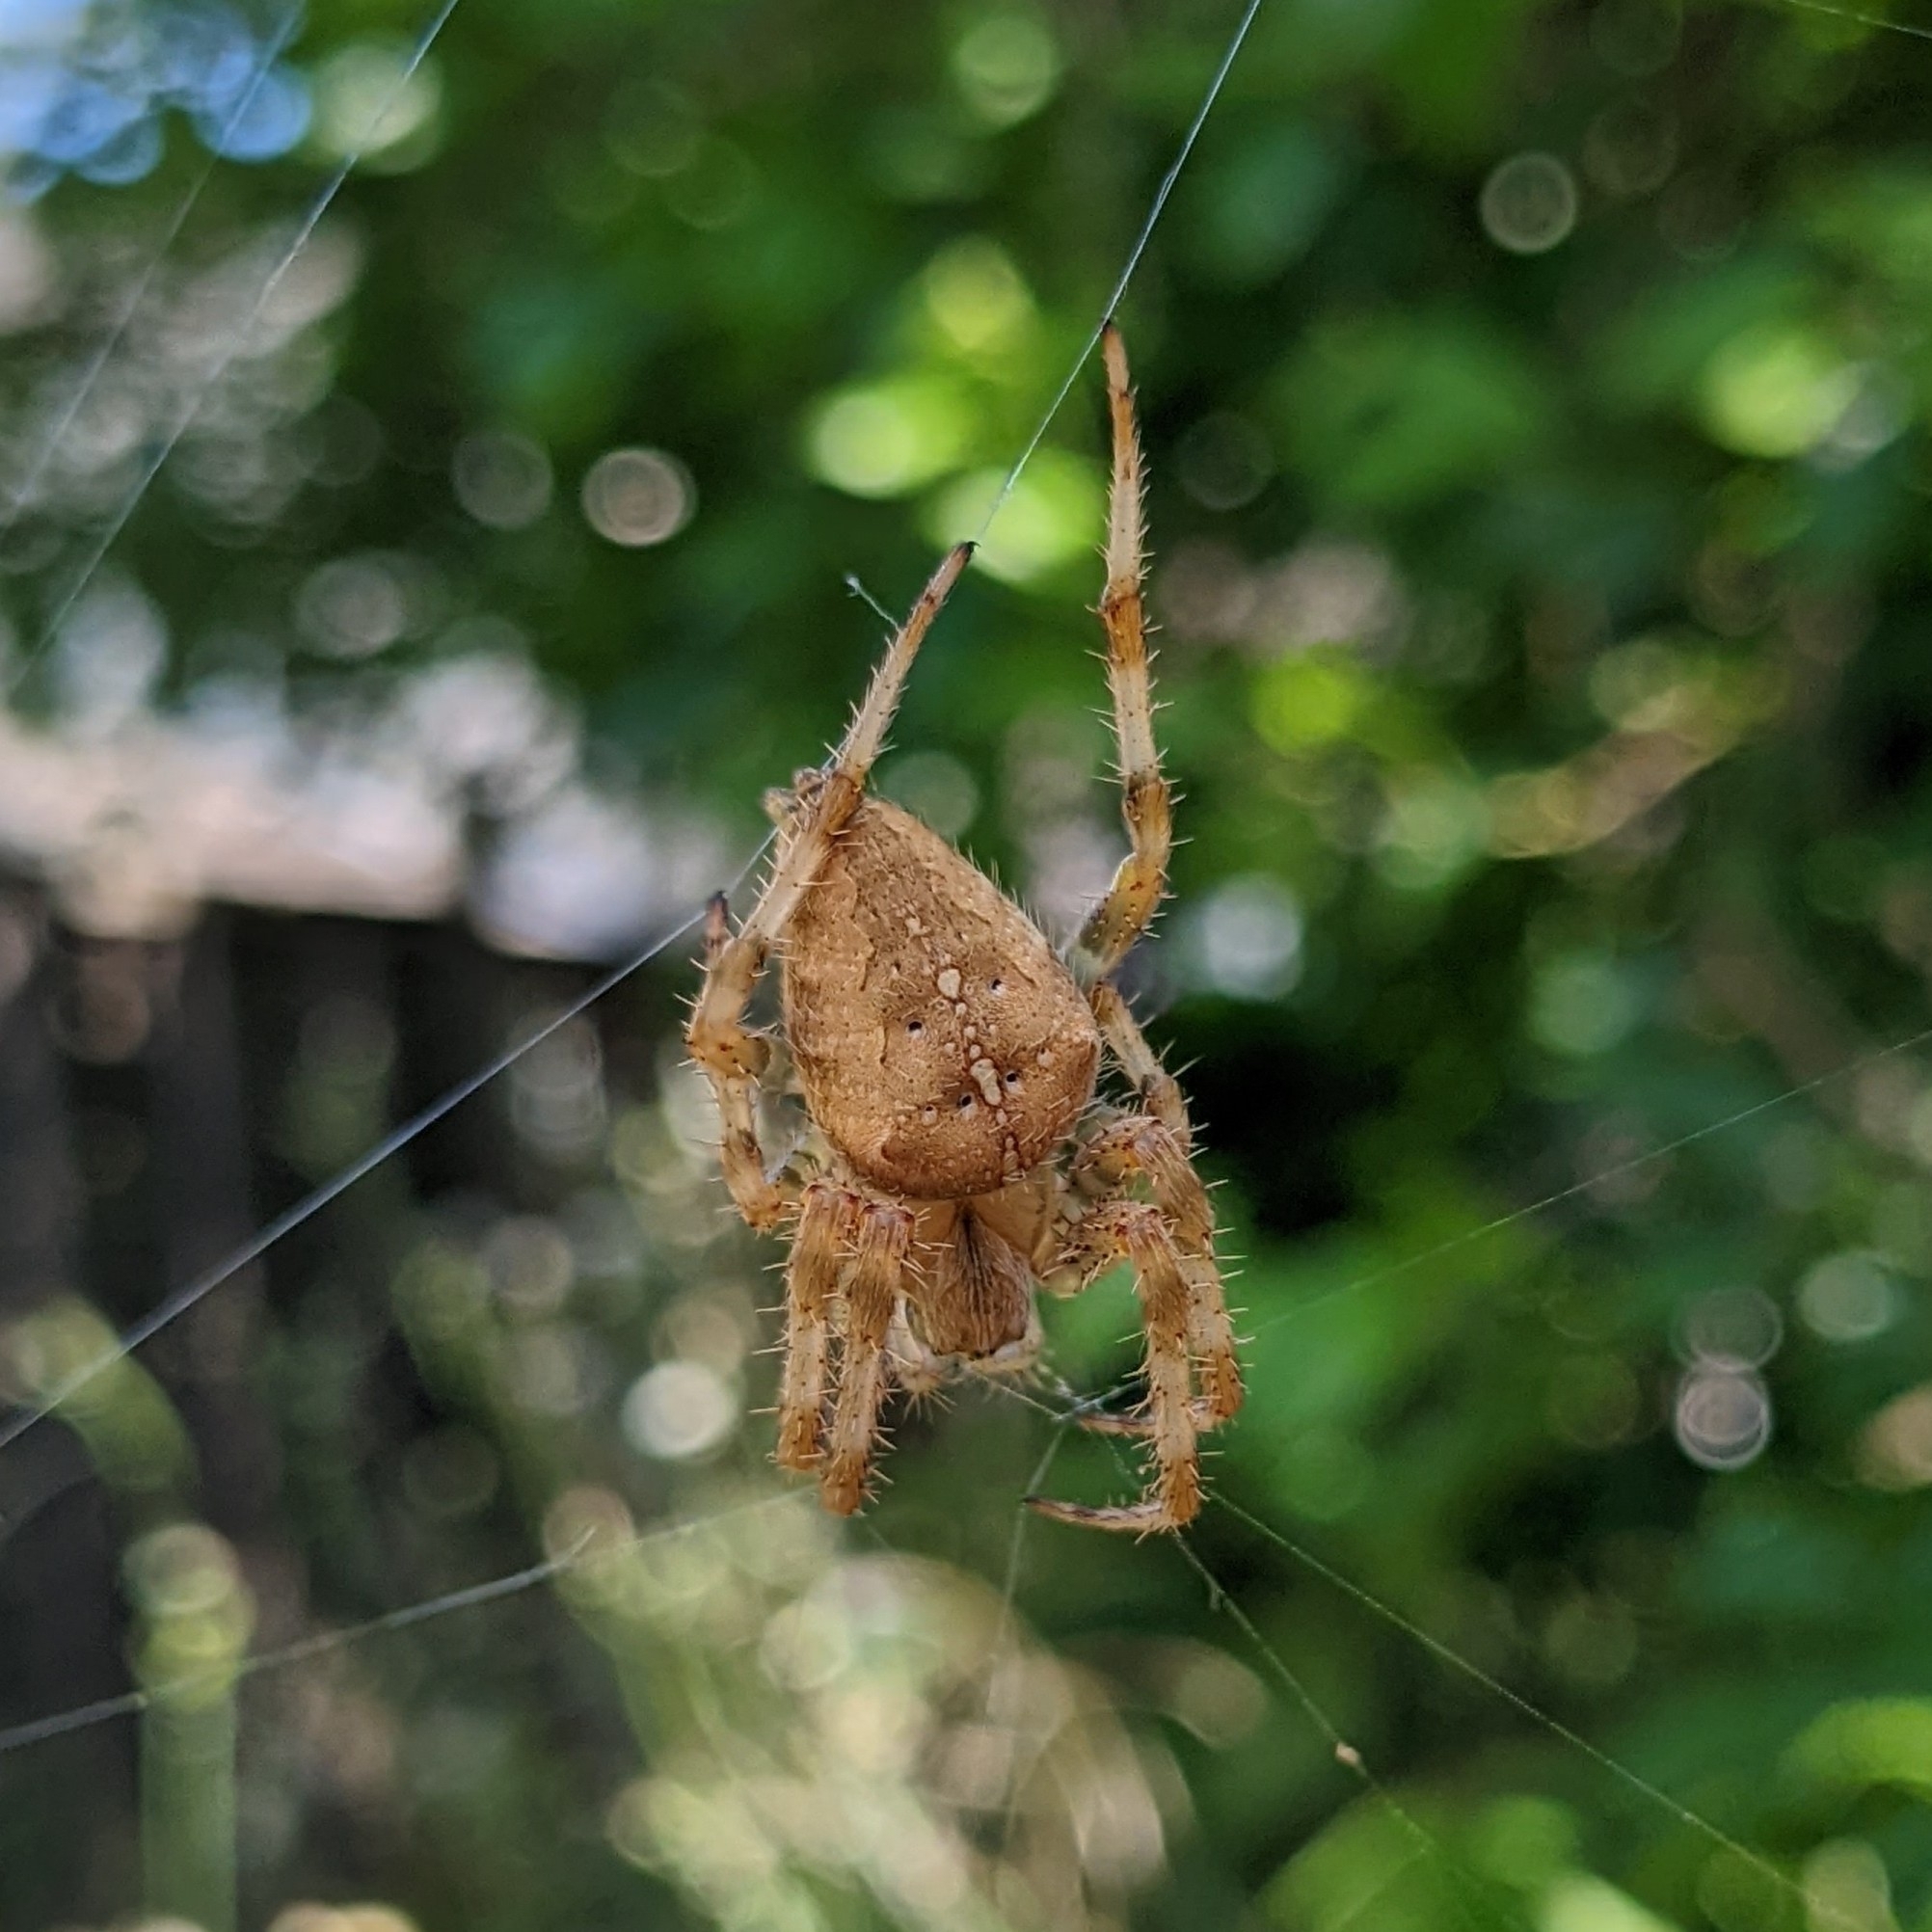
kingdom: Animalia
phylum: Arthropoda
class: Arachnida
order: Araneae
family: Araneidae
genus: Araneus
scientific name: Araneus diadematus
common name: Cross orbweaver
